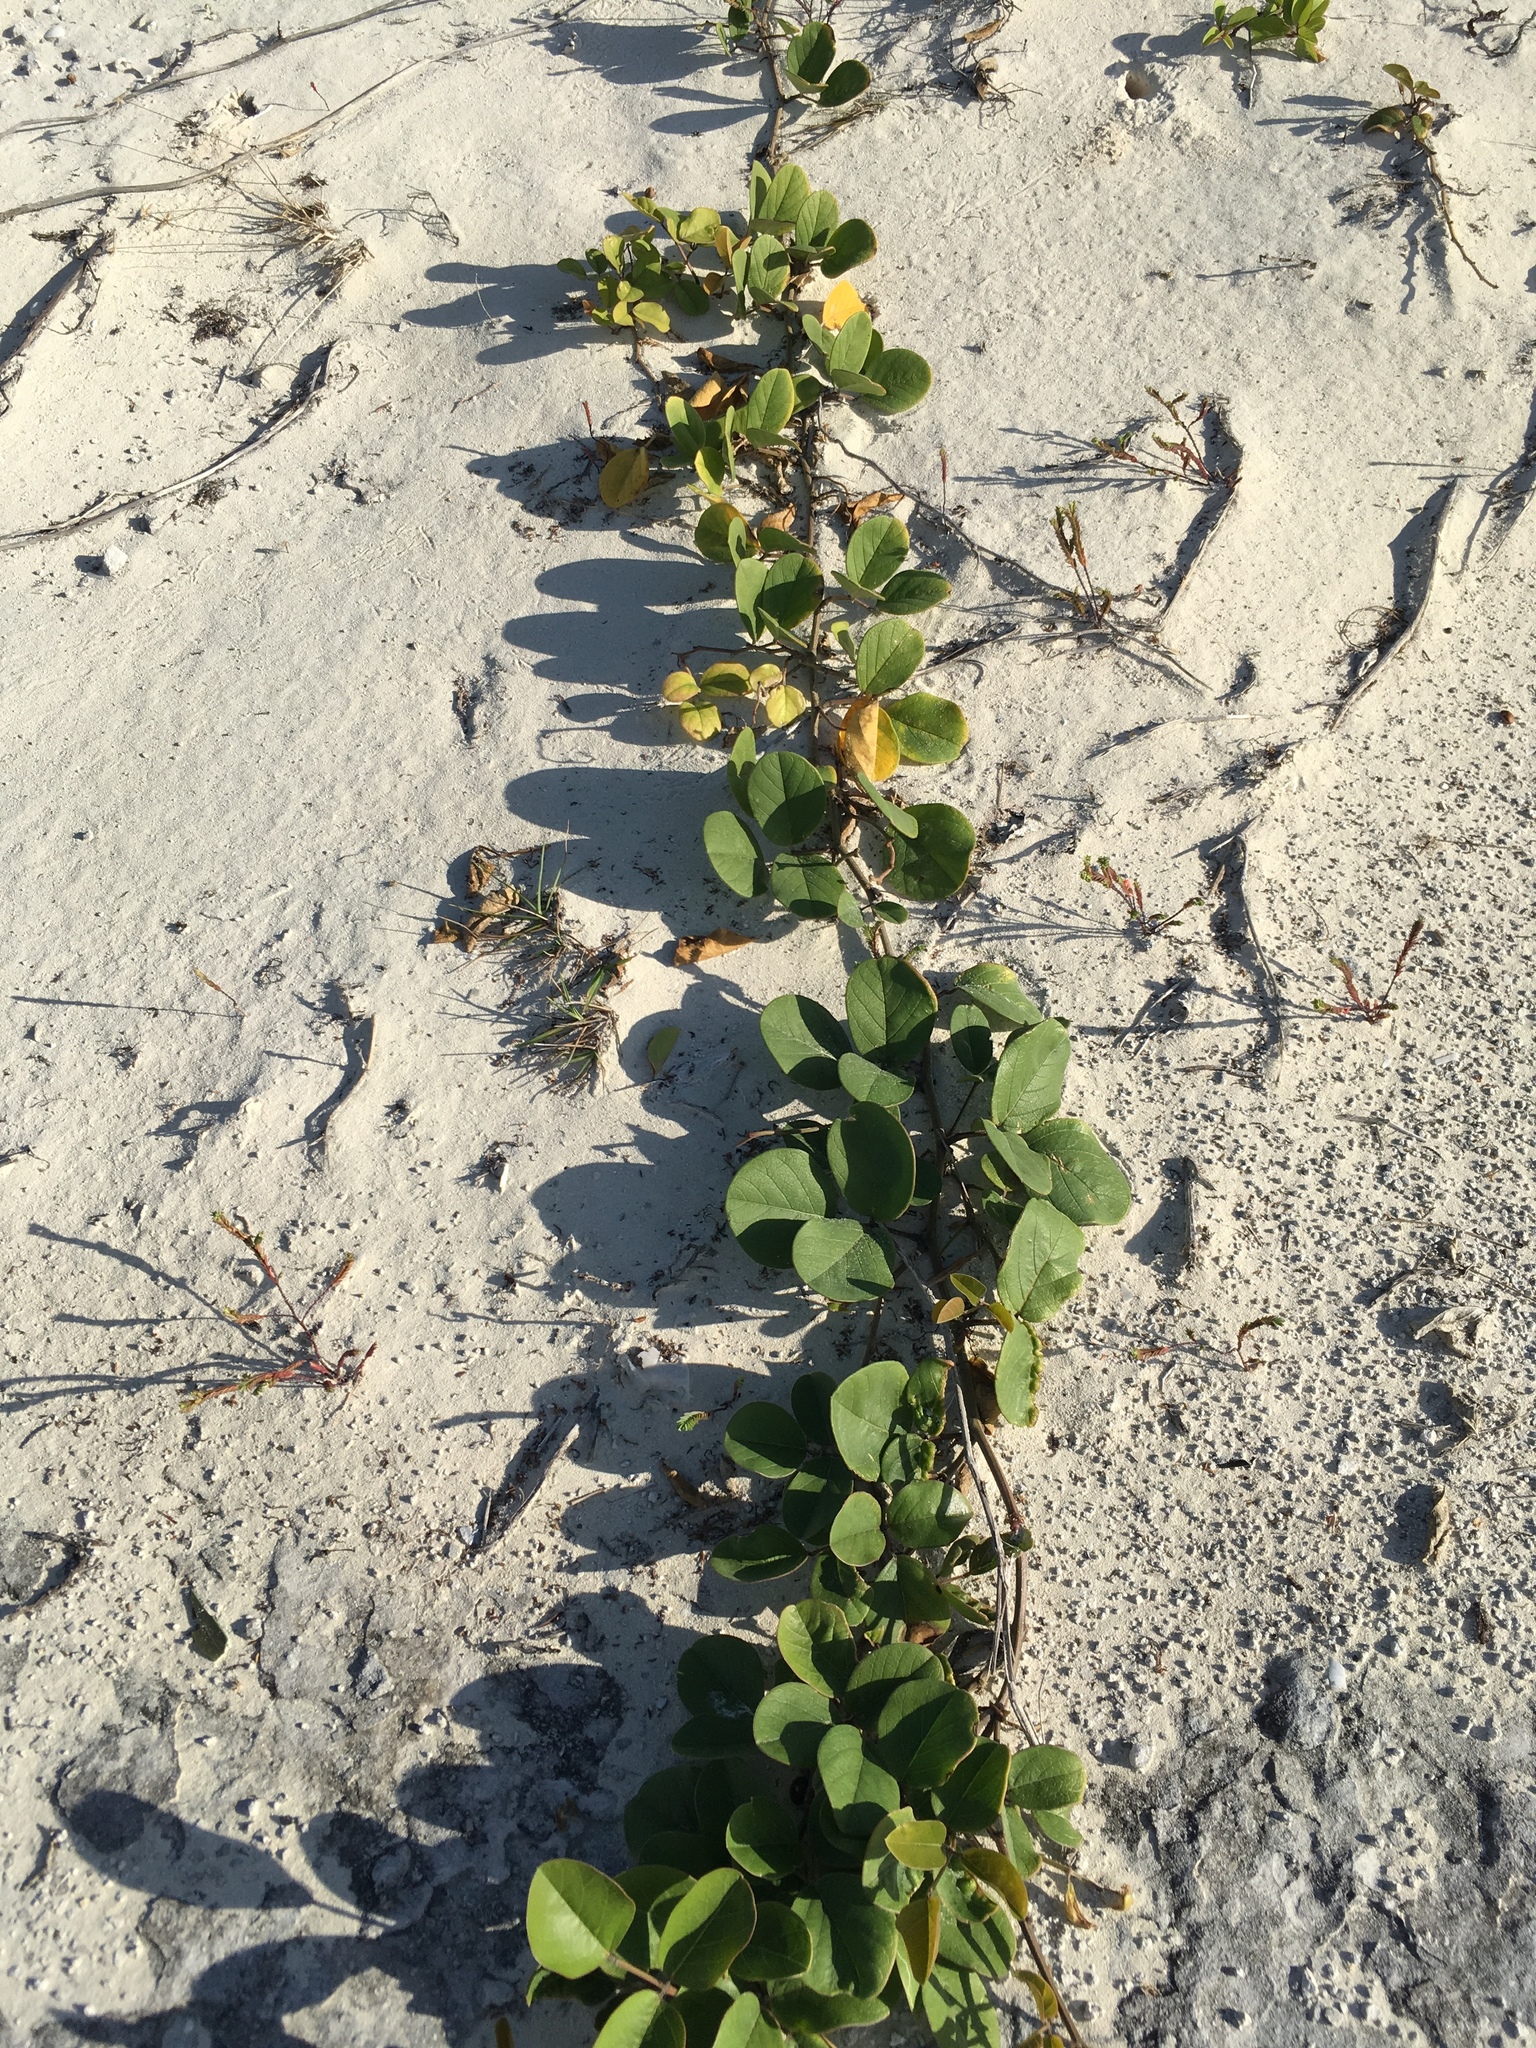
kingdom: Plantae
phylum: Tracheophyta
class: Magnoliopsida
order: Fabales
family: Fabaceae
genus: Canavalia
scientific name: Canavalia rosea
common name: Beach-bean
